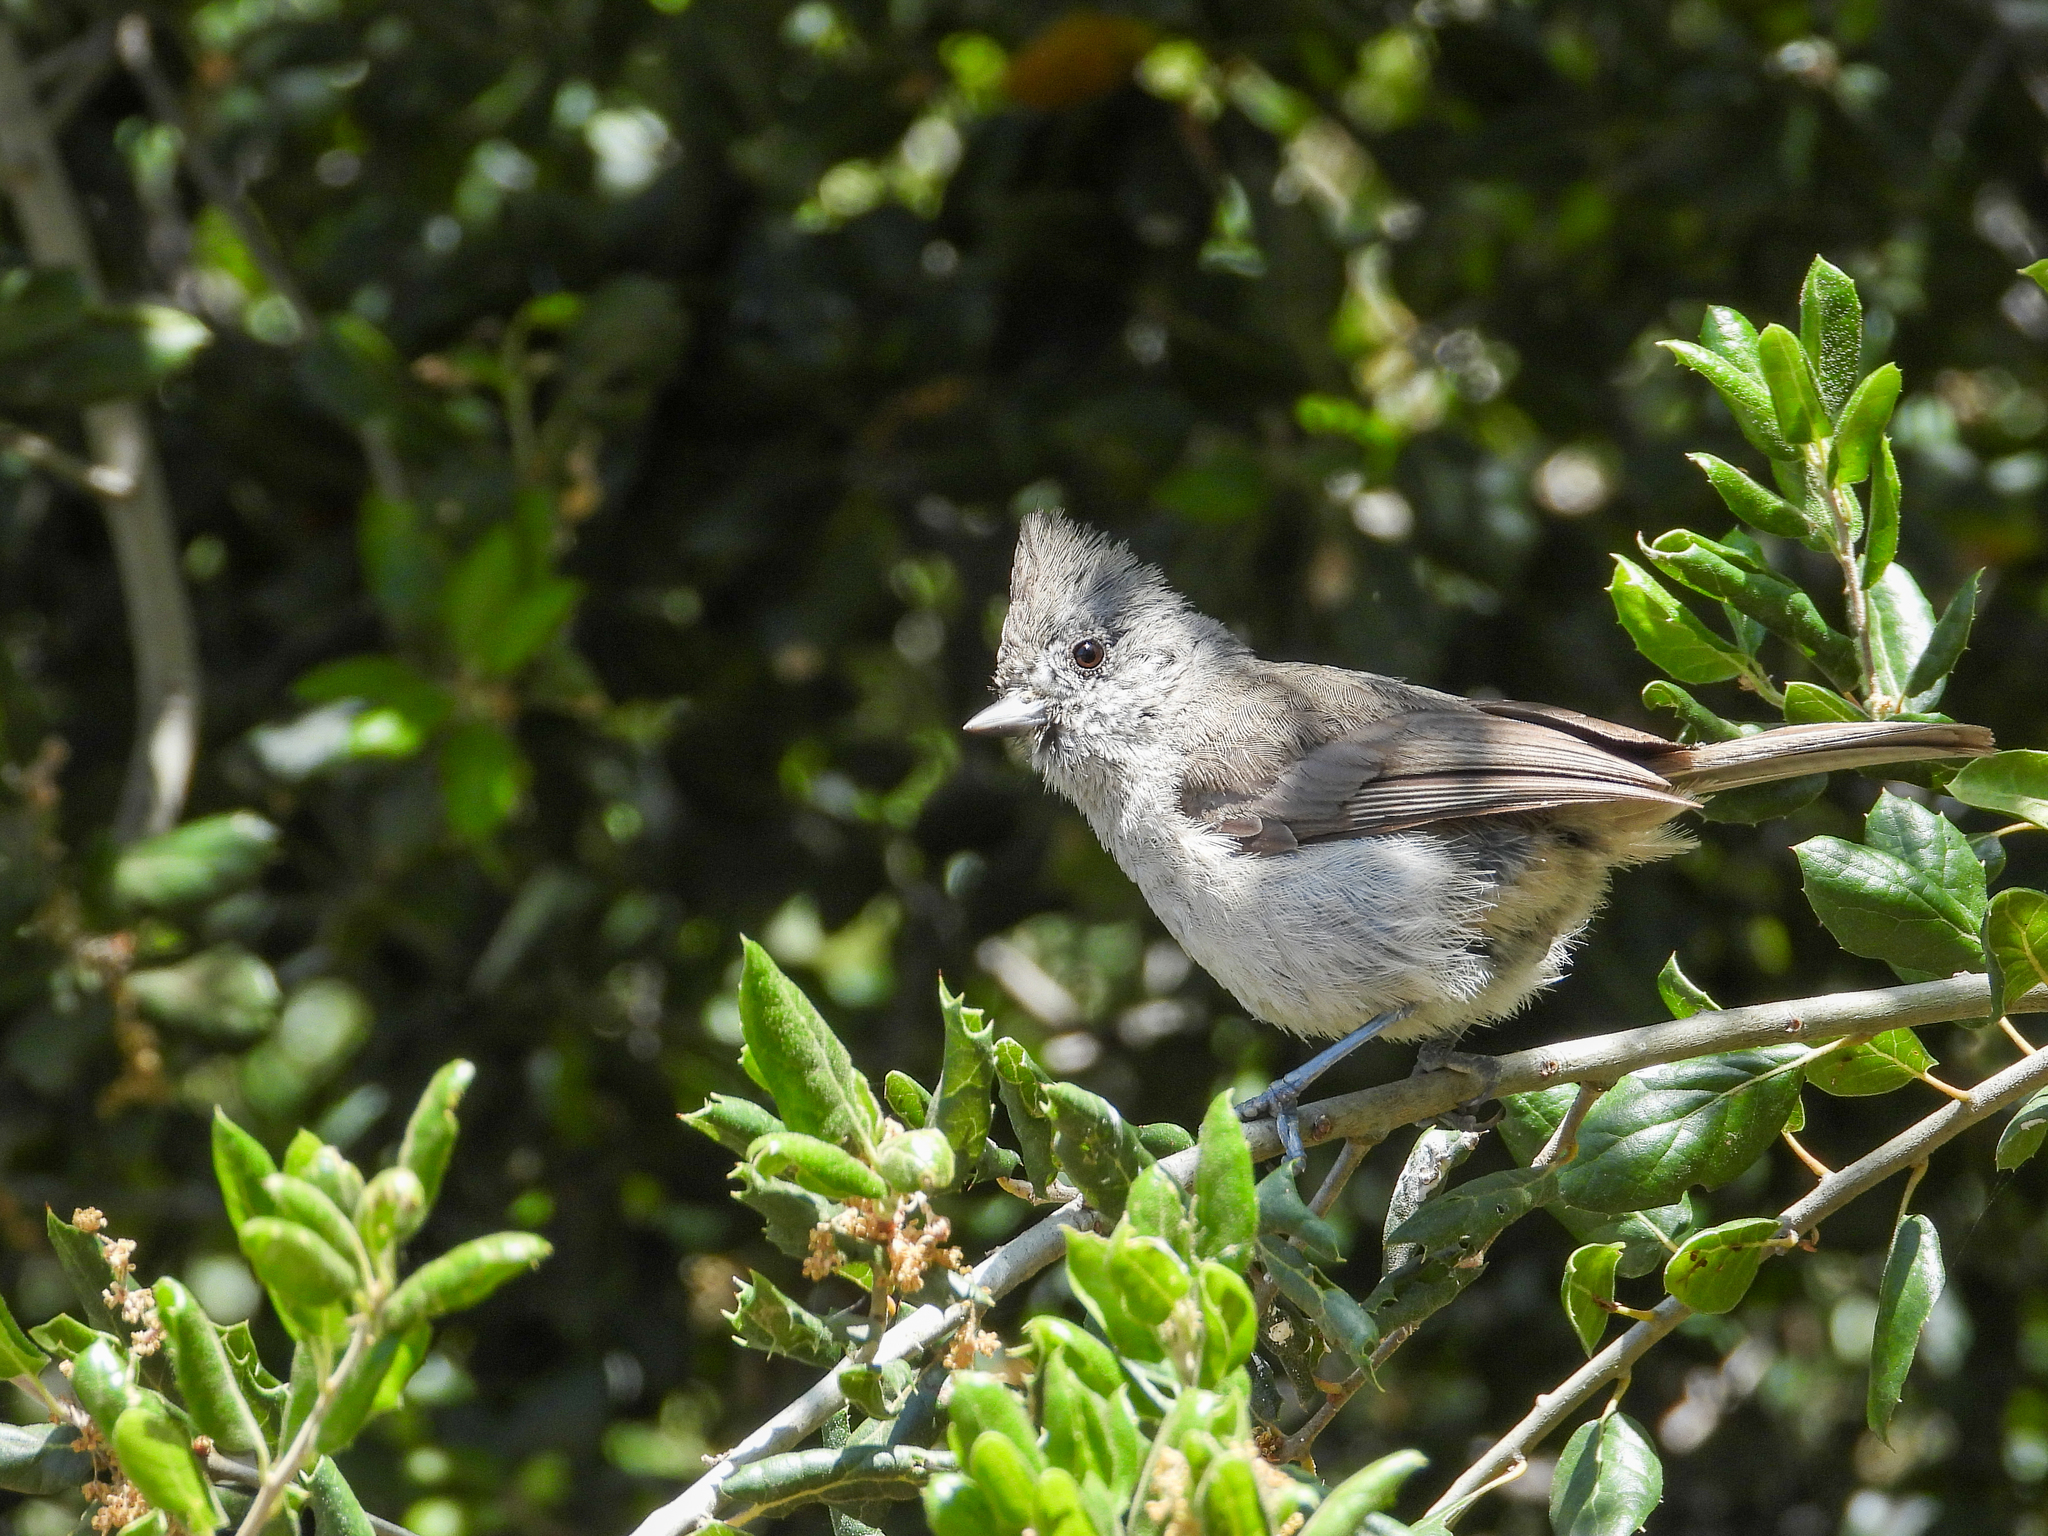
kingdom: Animalia
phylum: Chordata
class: Aves
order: Passeriformes
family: Paridae
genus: Baeolophus
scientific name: Baeolophus inornatus
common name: Oak titmouse
